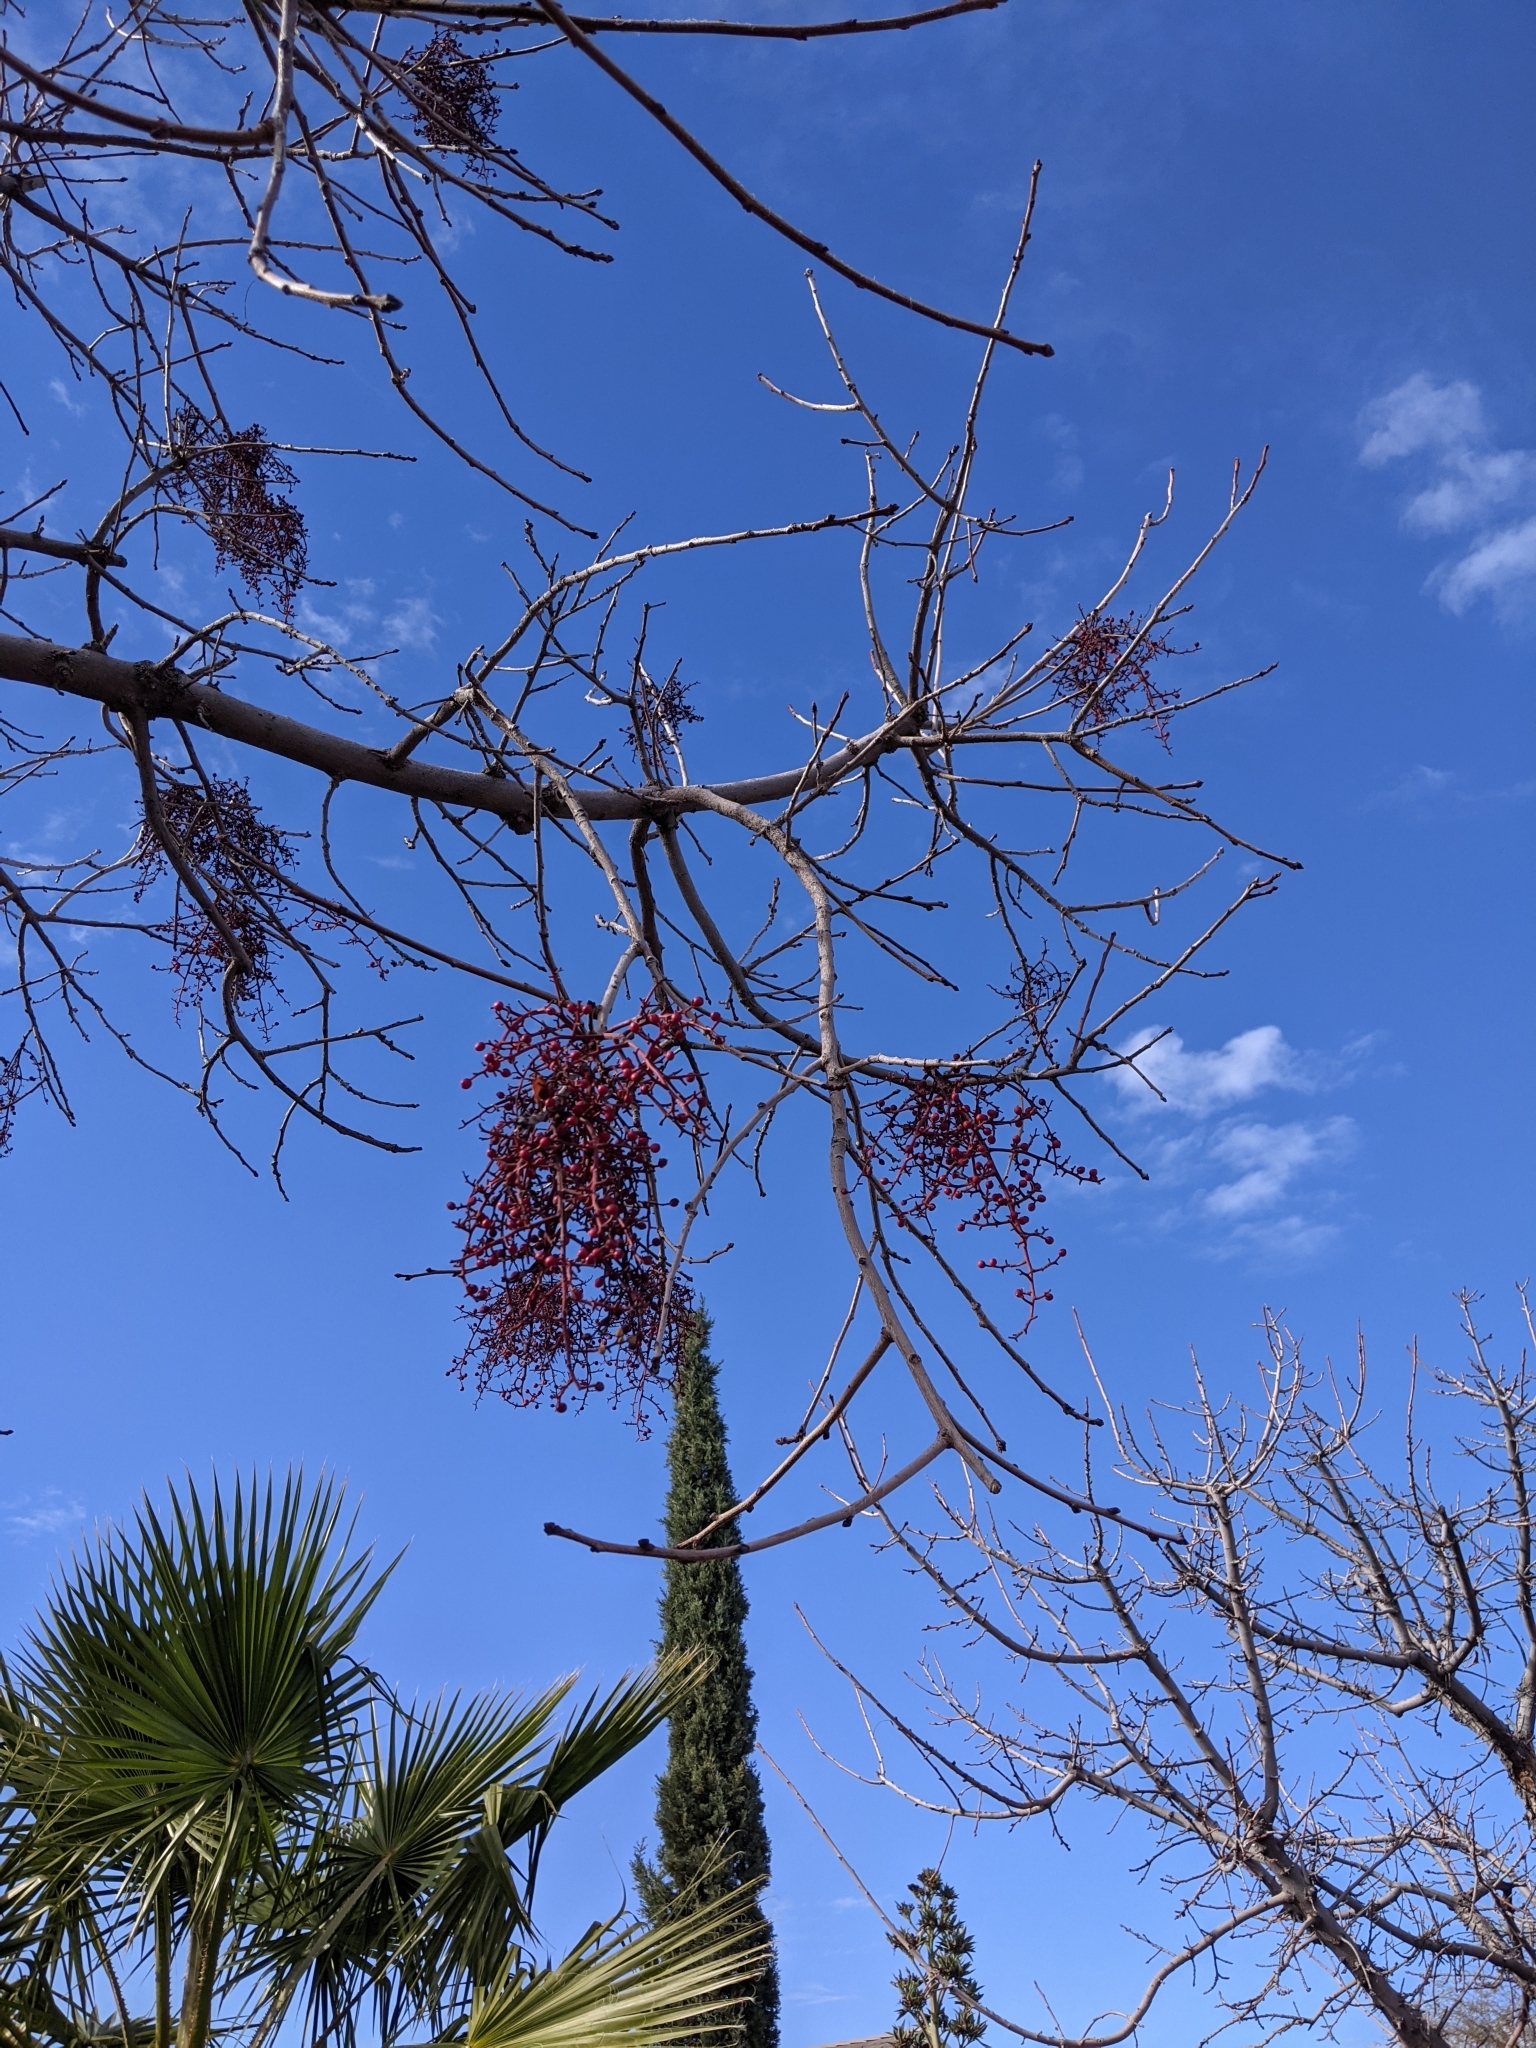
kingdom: Plantae
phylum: Tracheophyta
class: Magnoliopsida
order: Santalales
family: Viscaceae
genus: Phoradendron
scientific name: Phoradendron californicum
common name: Acacia mistletoe
